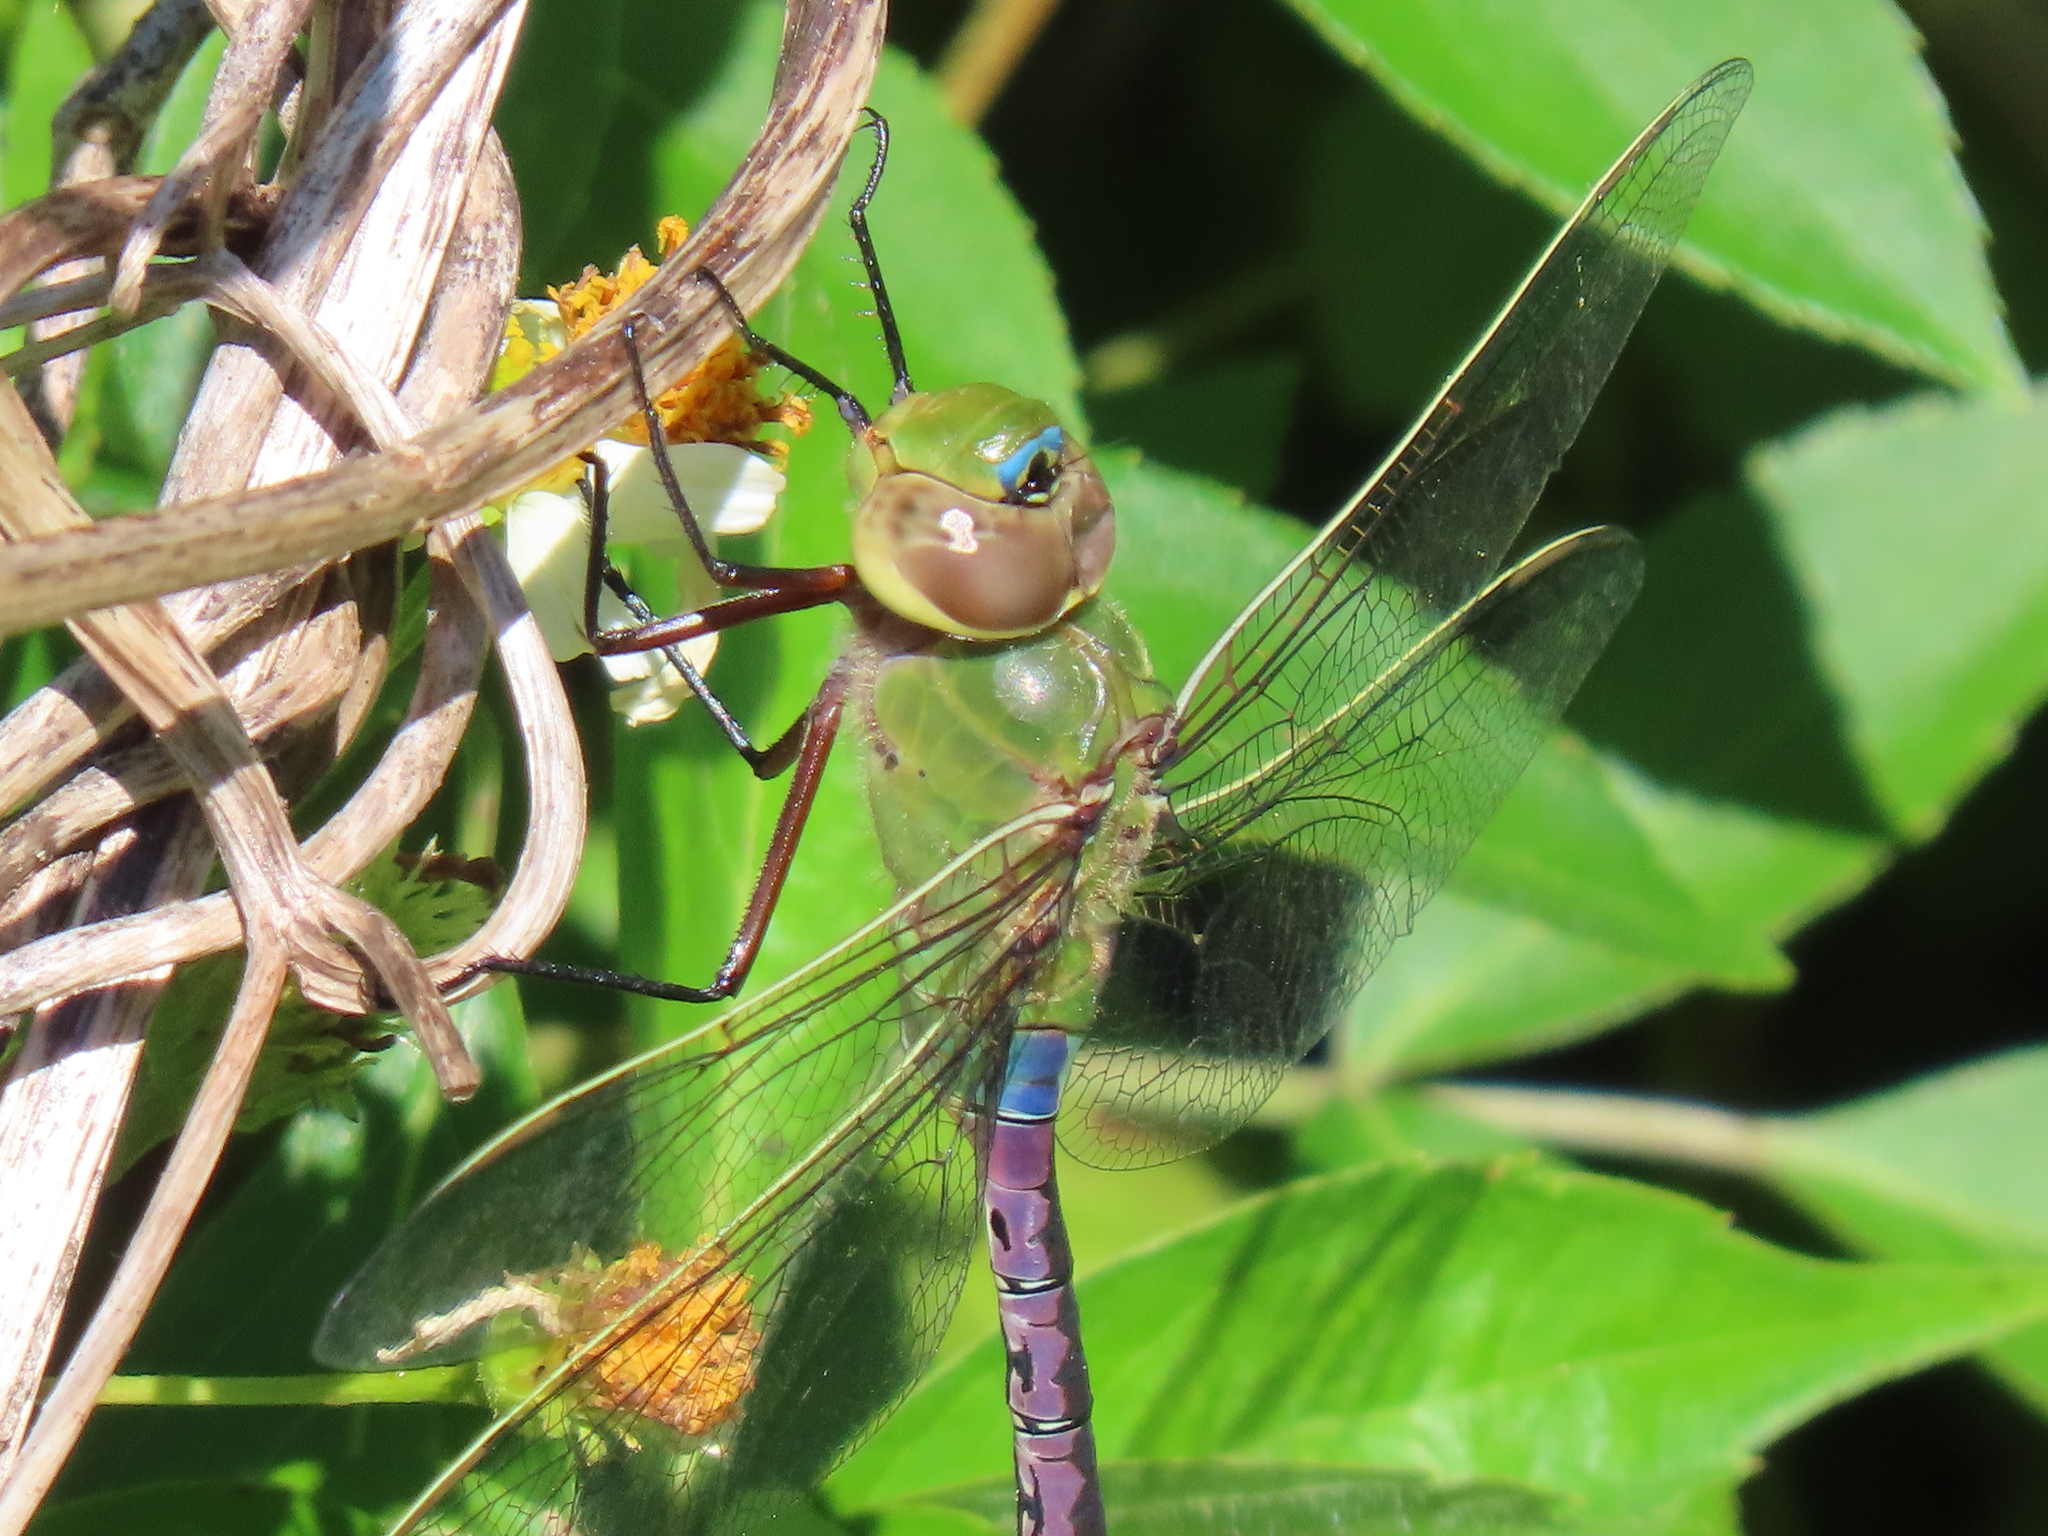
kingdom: Animalia
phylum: Arthropoda
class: Insecta
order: Odonata
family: Aeshnidae
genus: Anax
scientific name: Anax junius
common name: Common green darner
